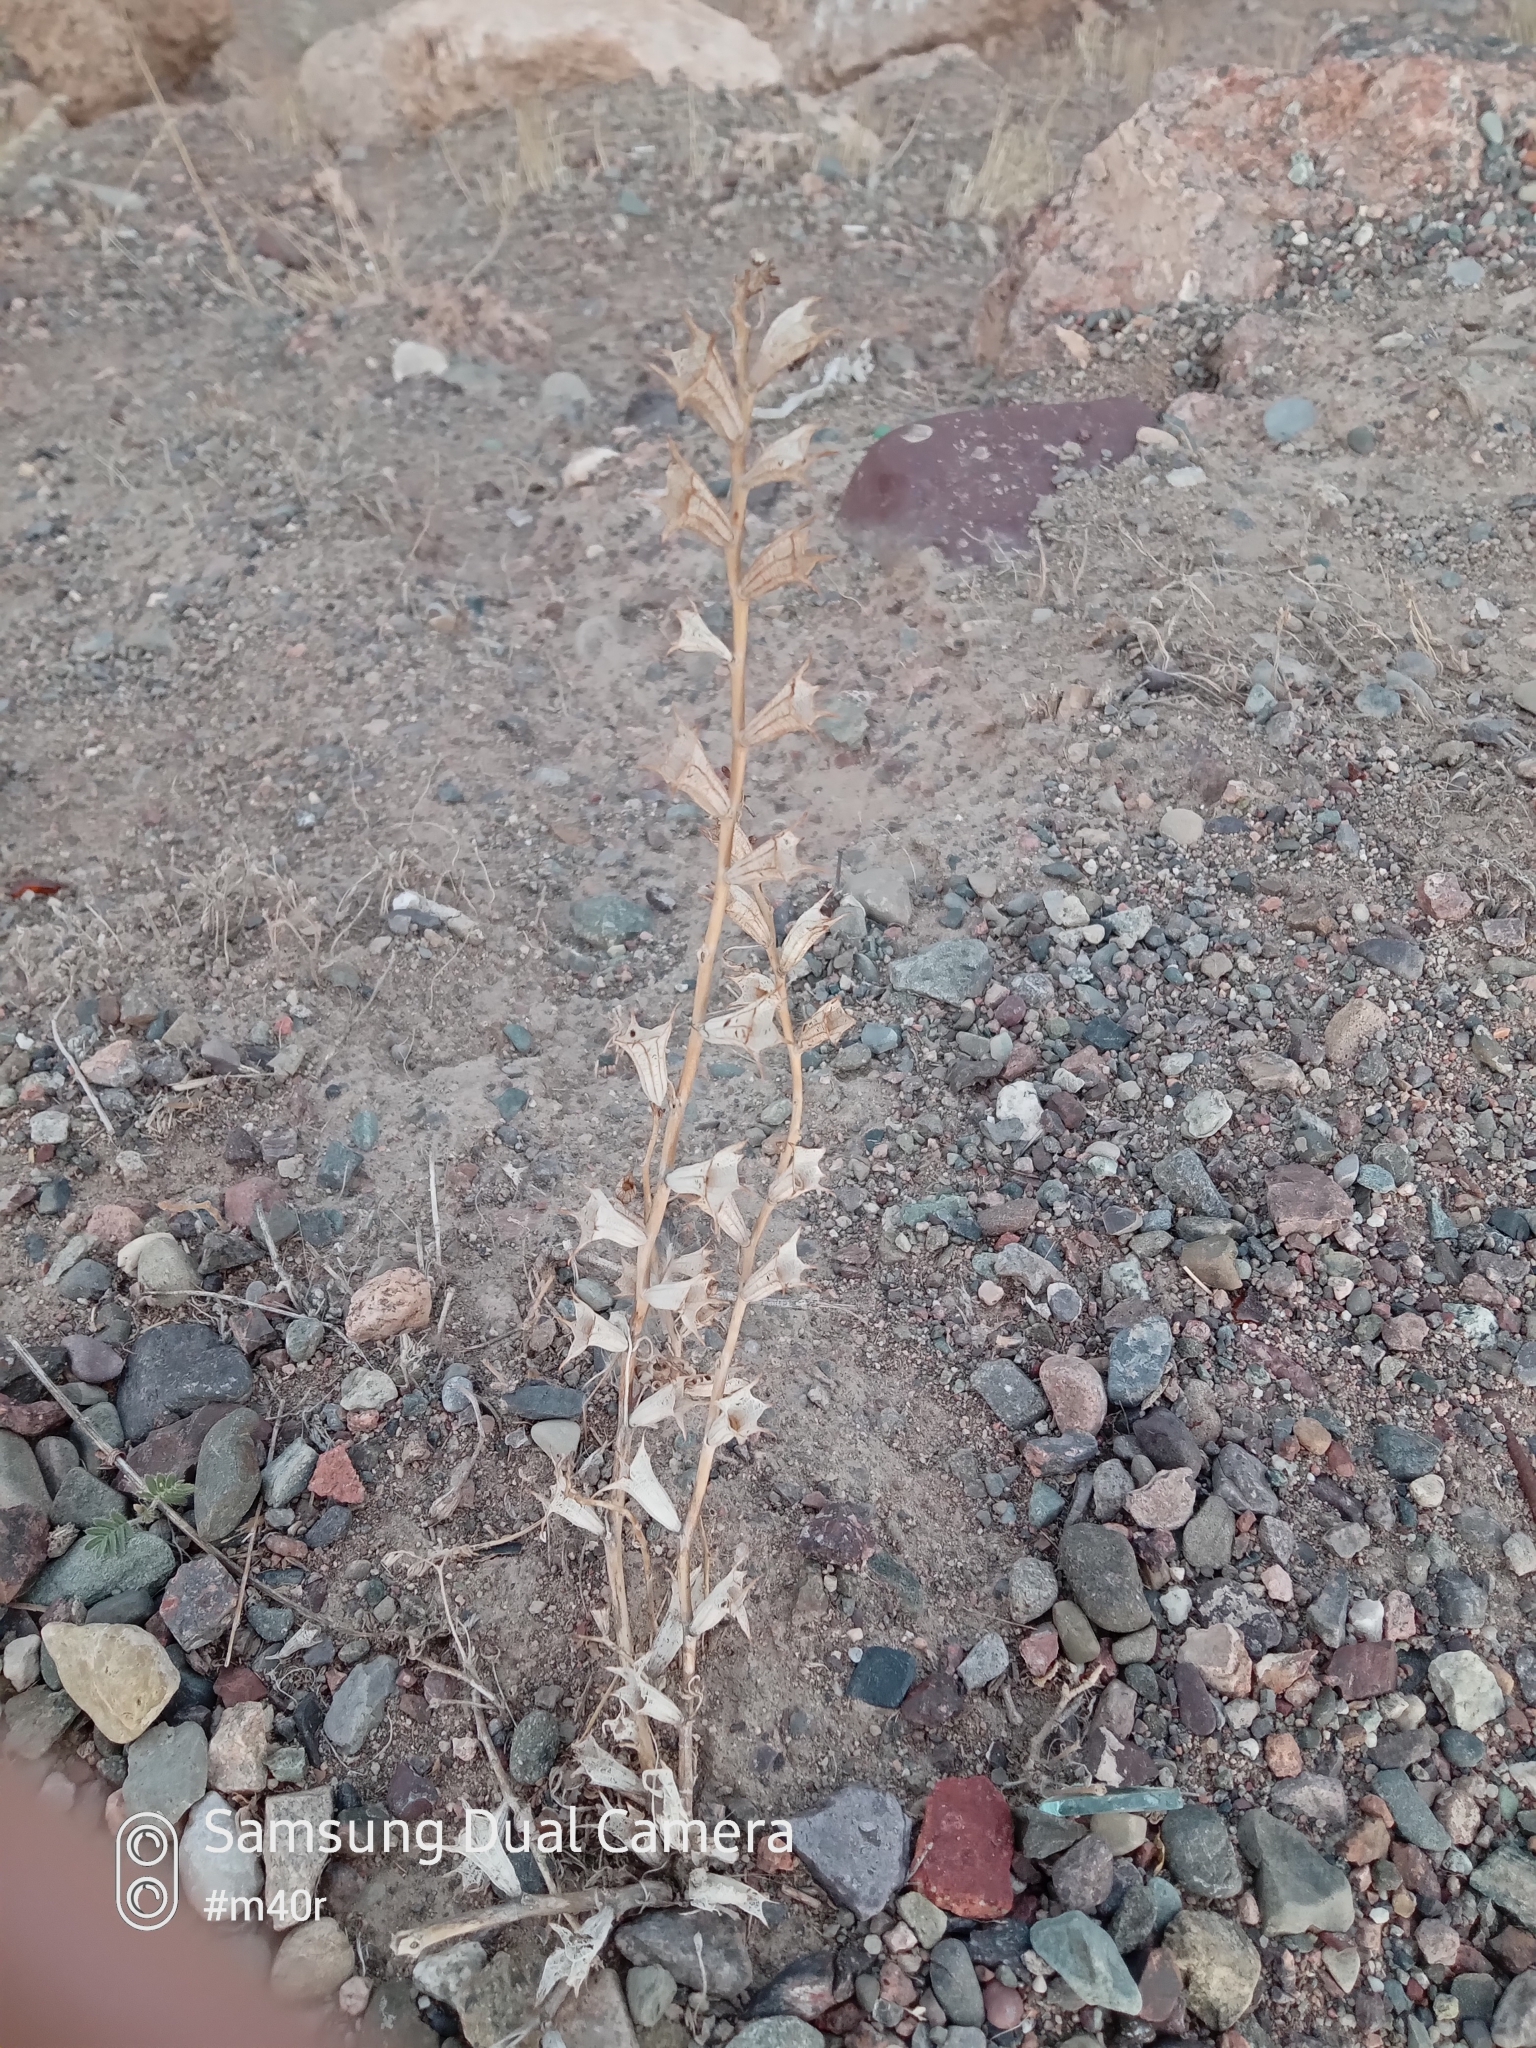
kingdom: Plantae
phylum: Tracheophyta
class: Magnoliopsida
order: Solanales
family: Solanaceae
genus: Hyoscyamus
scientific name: Hyoscyamus pusillus
